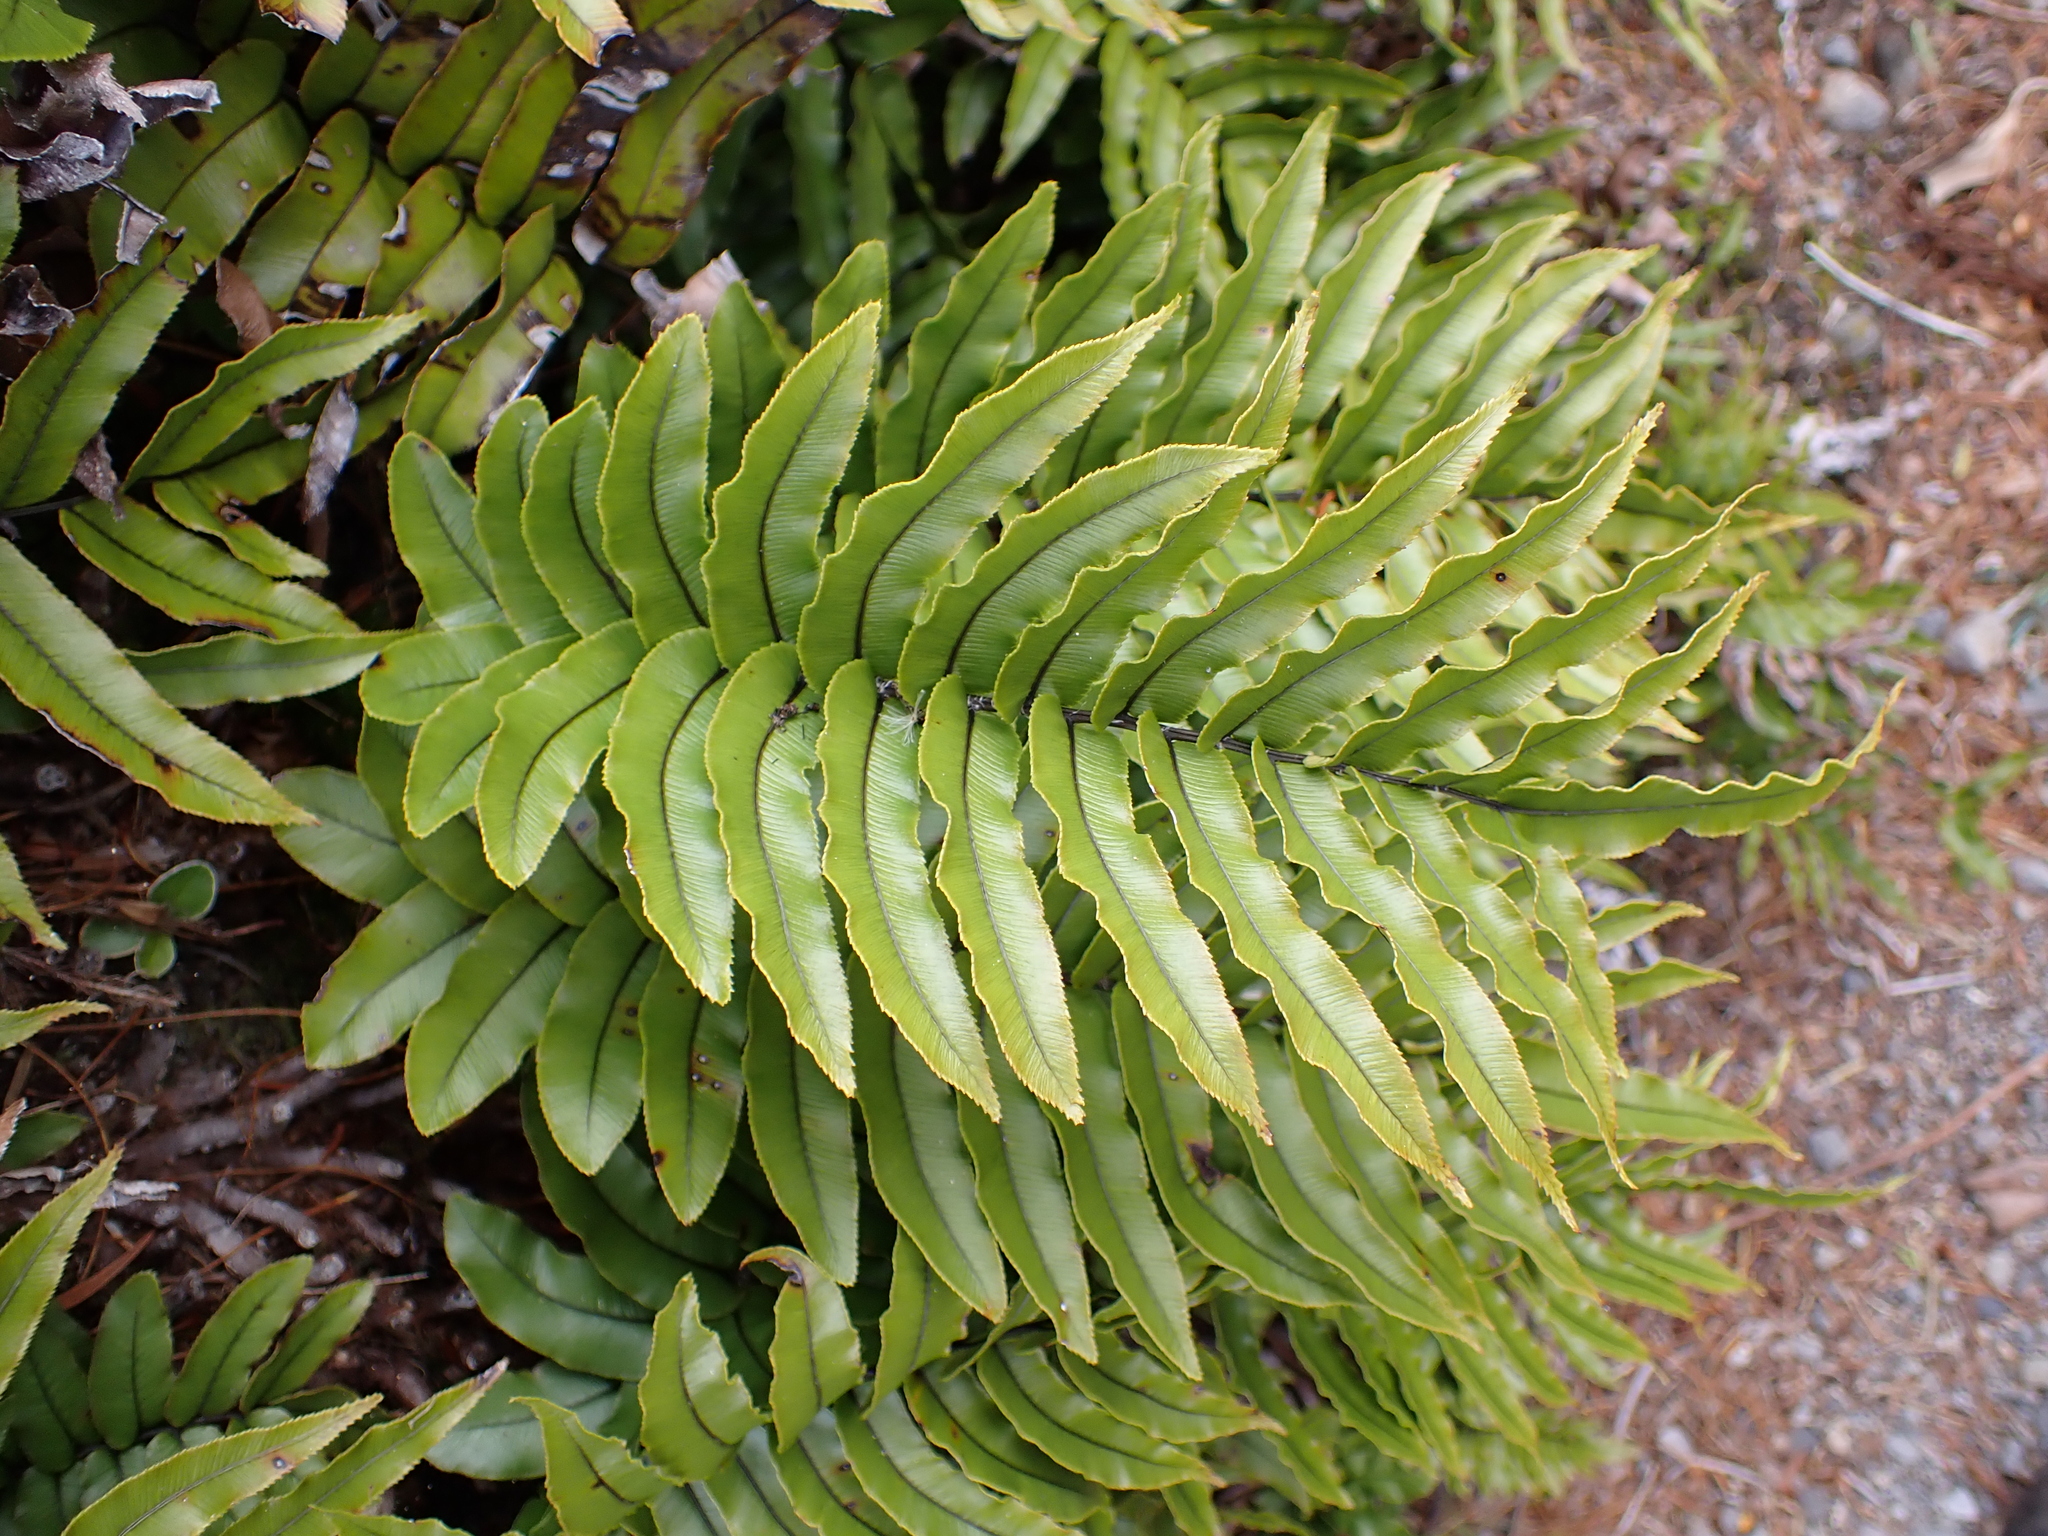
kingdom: Plantae
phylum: Tracheophyta
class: Polypodiopsida
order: Polypodiales
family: Blechnaceae
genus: Parablechnum
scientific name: Parablechnum montanum
